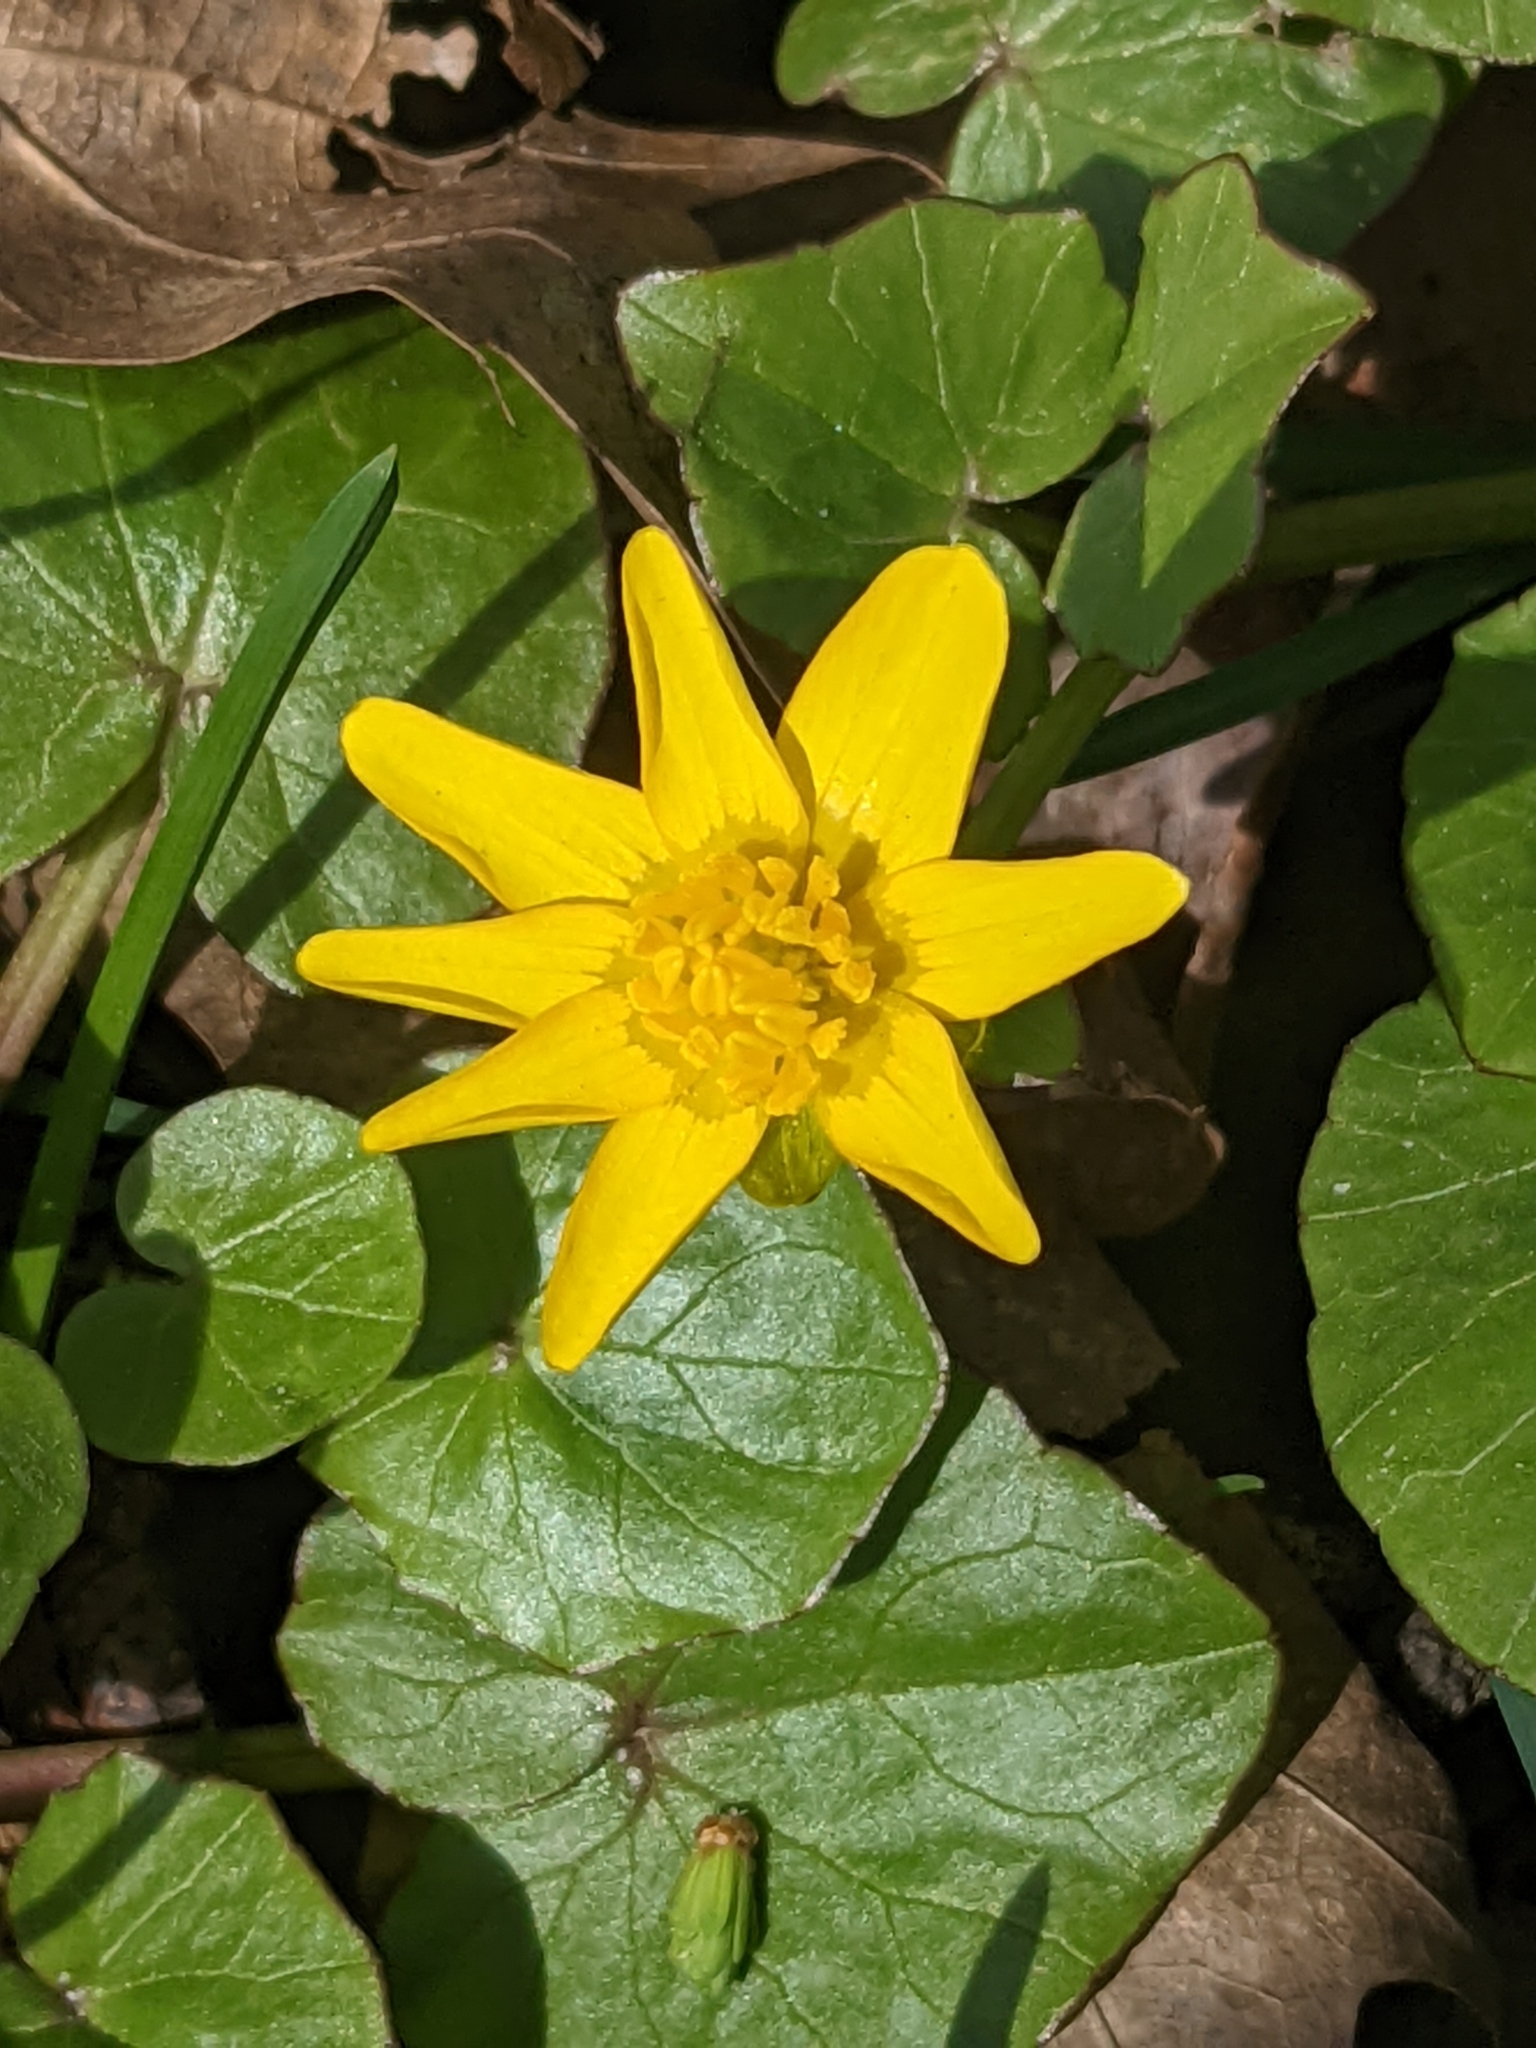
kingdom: Plantae
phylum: Tracheophyta
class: Magnoliopsida
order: Ranunculales
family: Ranunculaceae
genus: Ficaria
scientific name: Ficaria verna
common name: Lesser celandine
